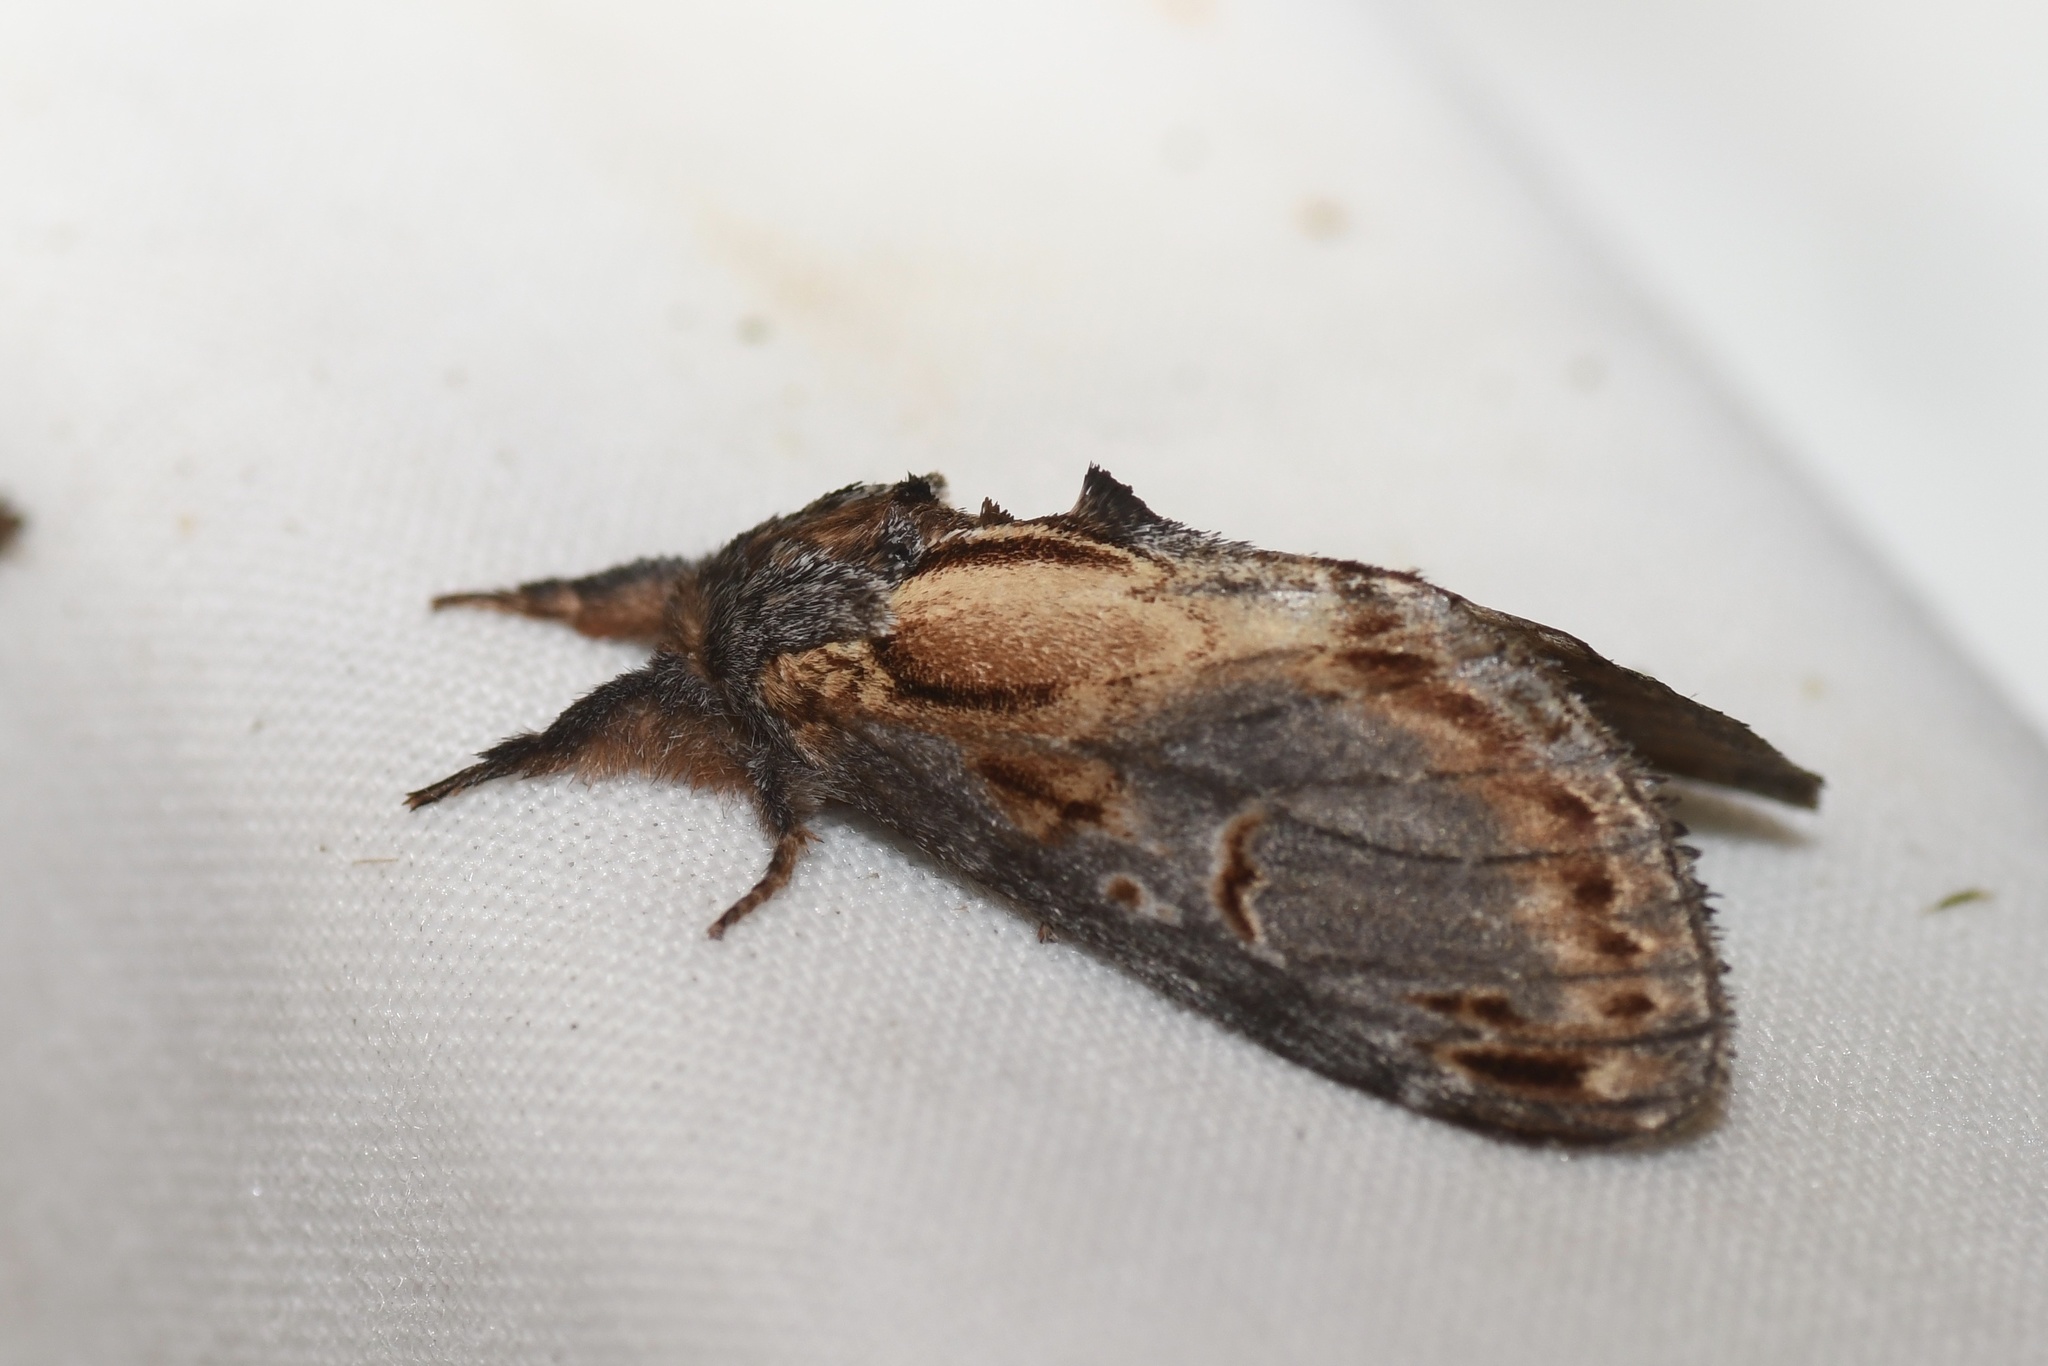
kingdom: Animalia
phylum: Arthropoda
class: Insecta
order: Lepidoptera
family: Notodontidae
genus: Notodonta
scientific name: Notodonta scitipennis
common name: Finned-willow prominent moth
